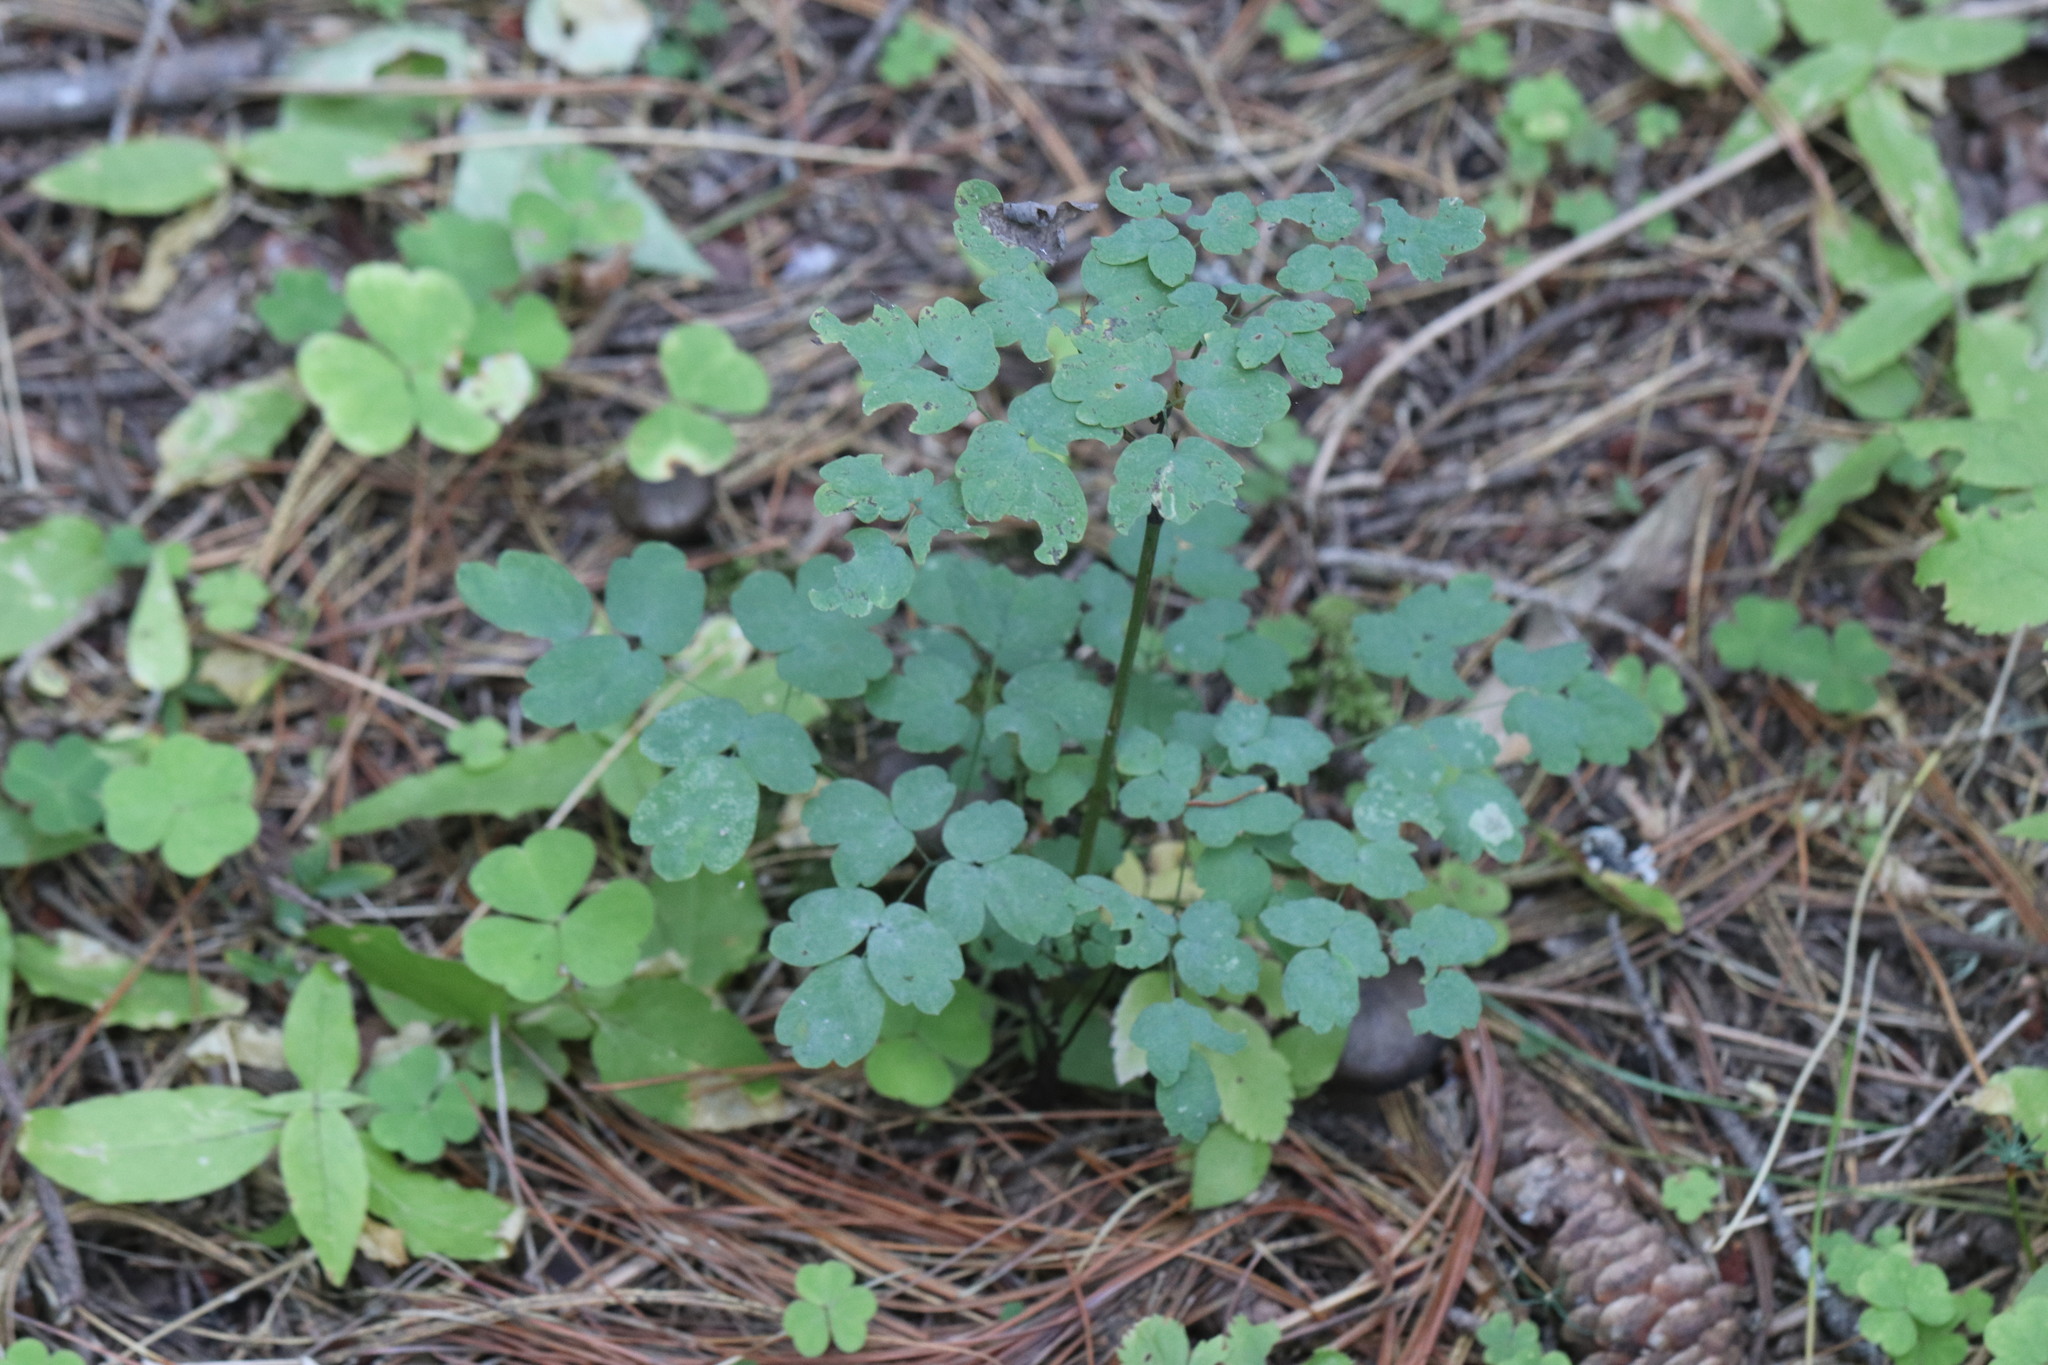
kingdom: Plantae
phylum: Tracheophyta
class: Magnoliopsida
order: Ranunculales
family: Ranunculaceae
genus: Thalictrum
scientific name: Thalictrum minus
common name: Lesser meadow-rue
